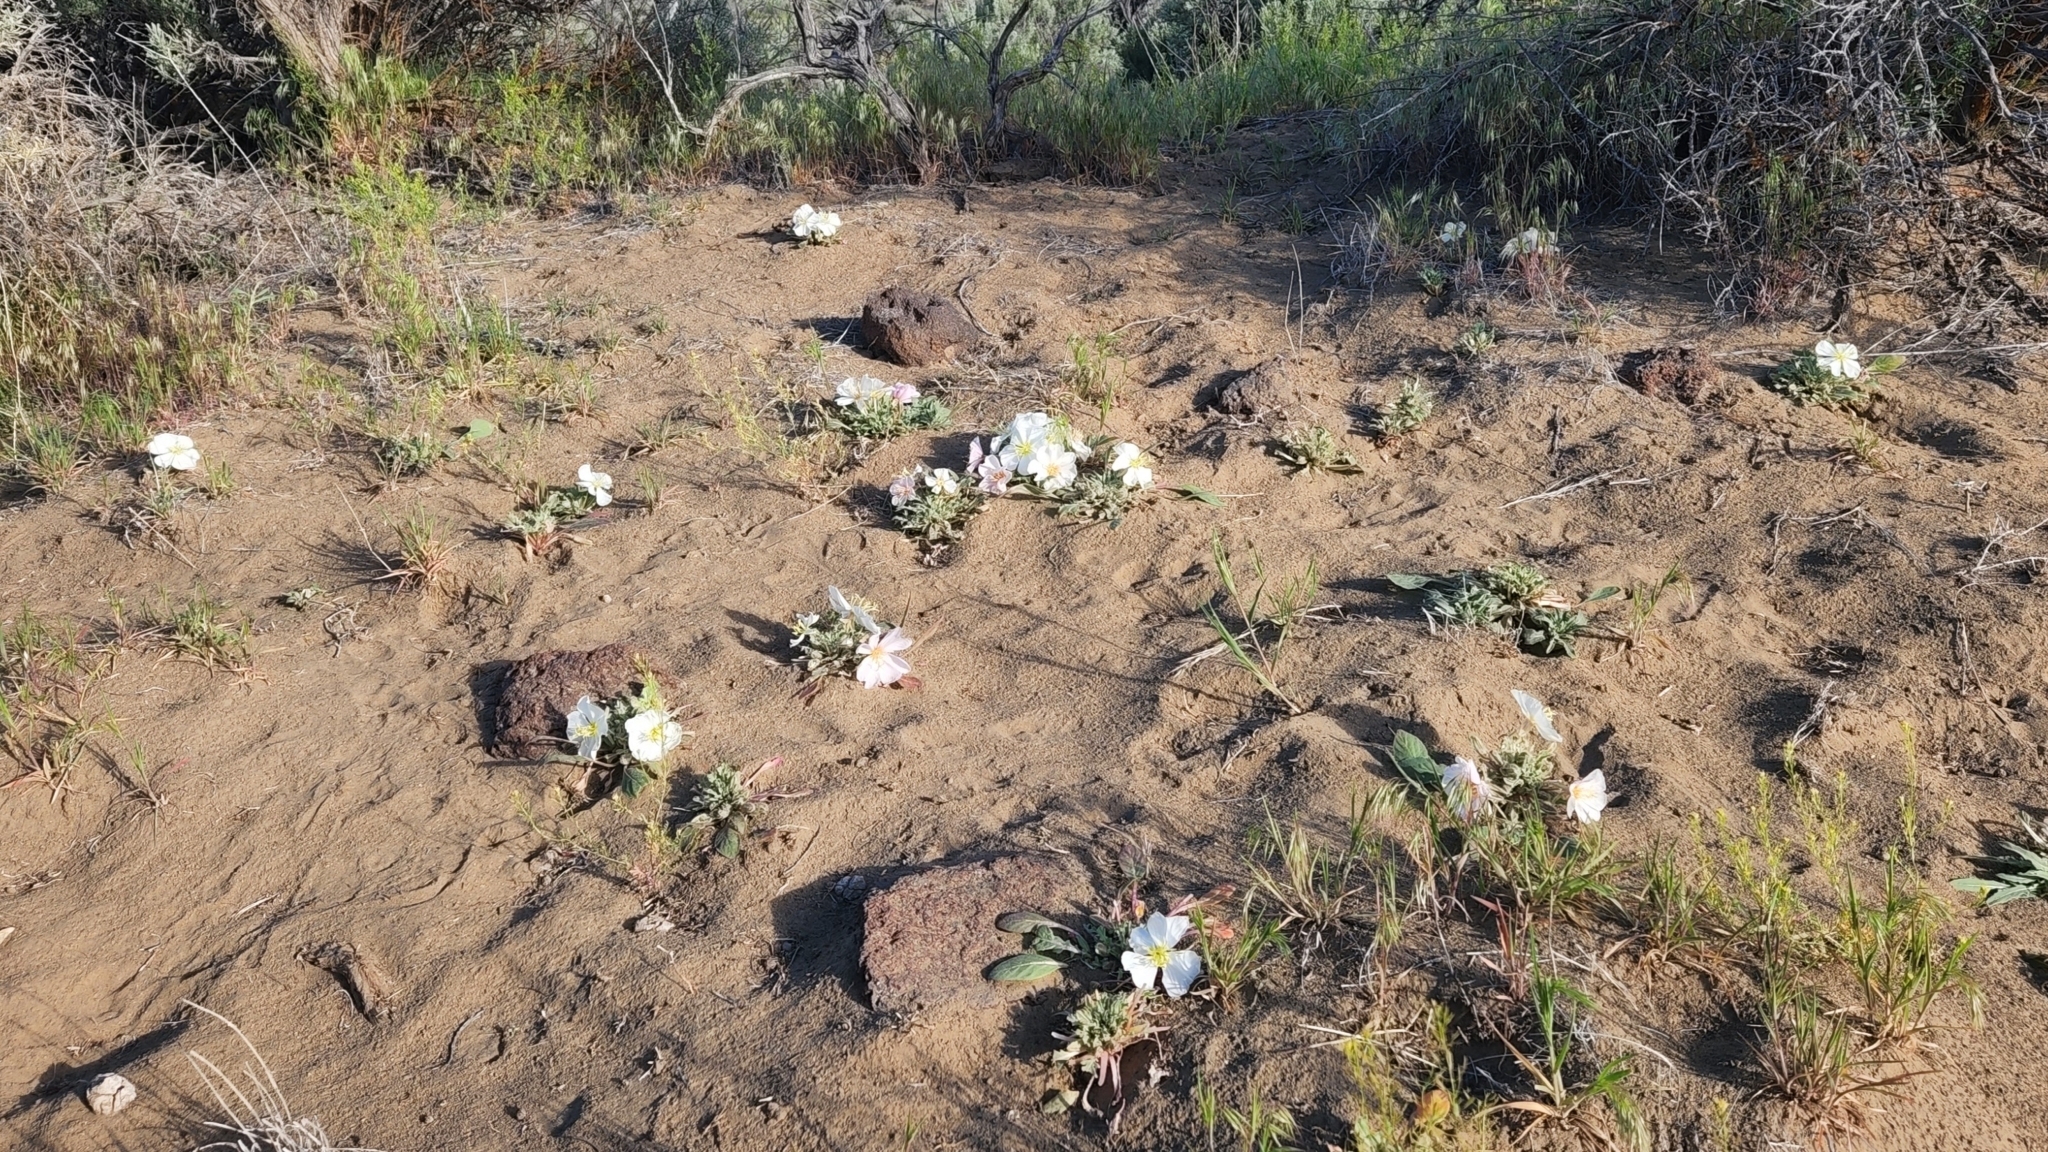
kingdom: Plantae
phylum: Tracheophyta
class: Magnoliopsida
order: Myrtales
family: Onagraceae
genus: Oenothera
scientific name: Oenothera cespitosa
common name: Tufted evening-primrose
